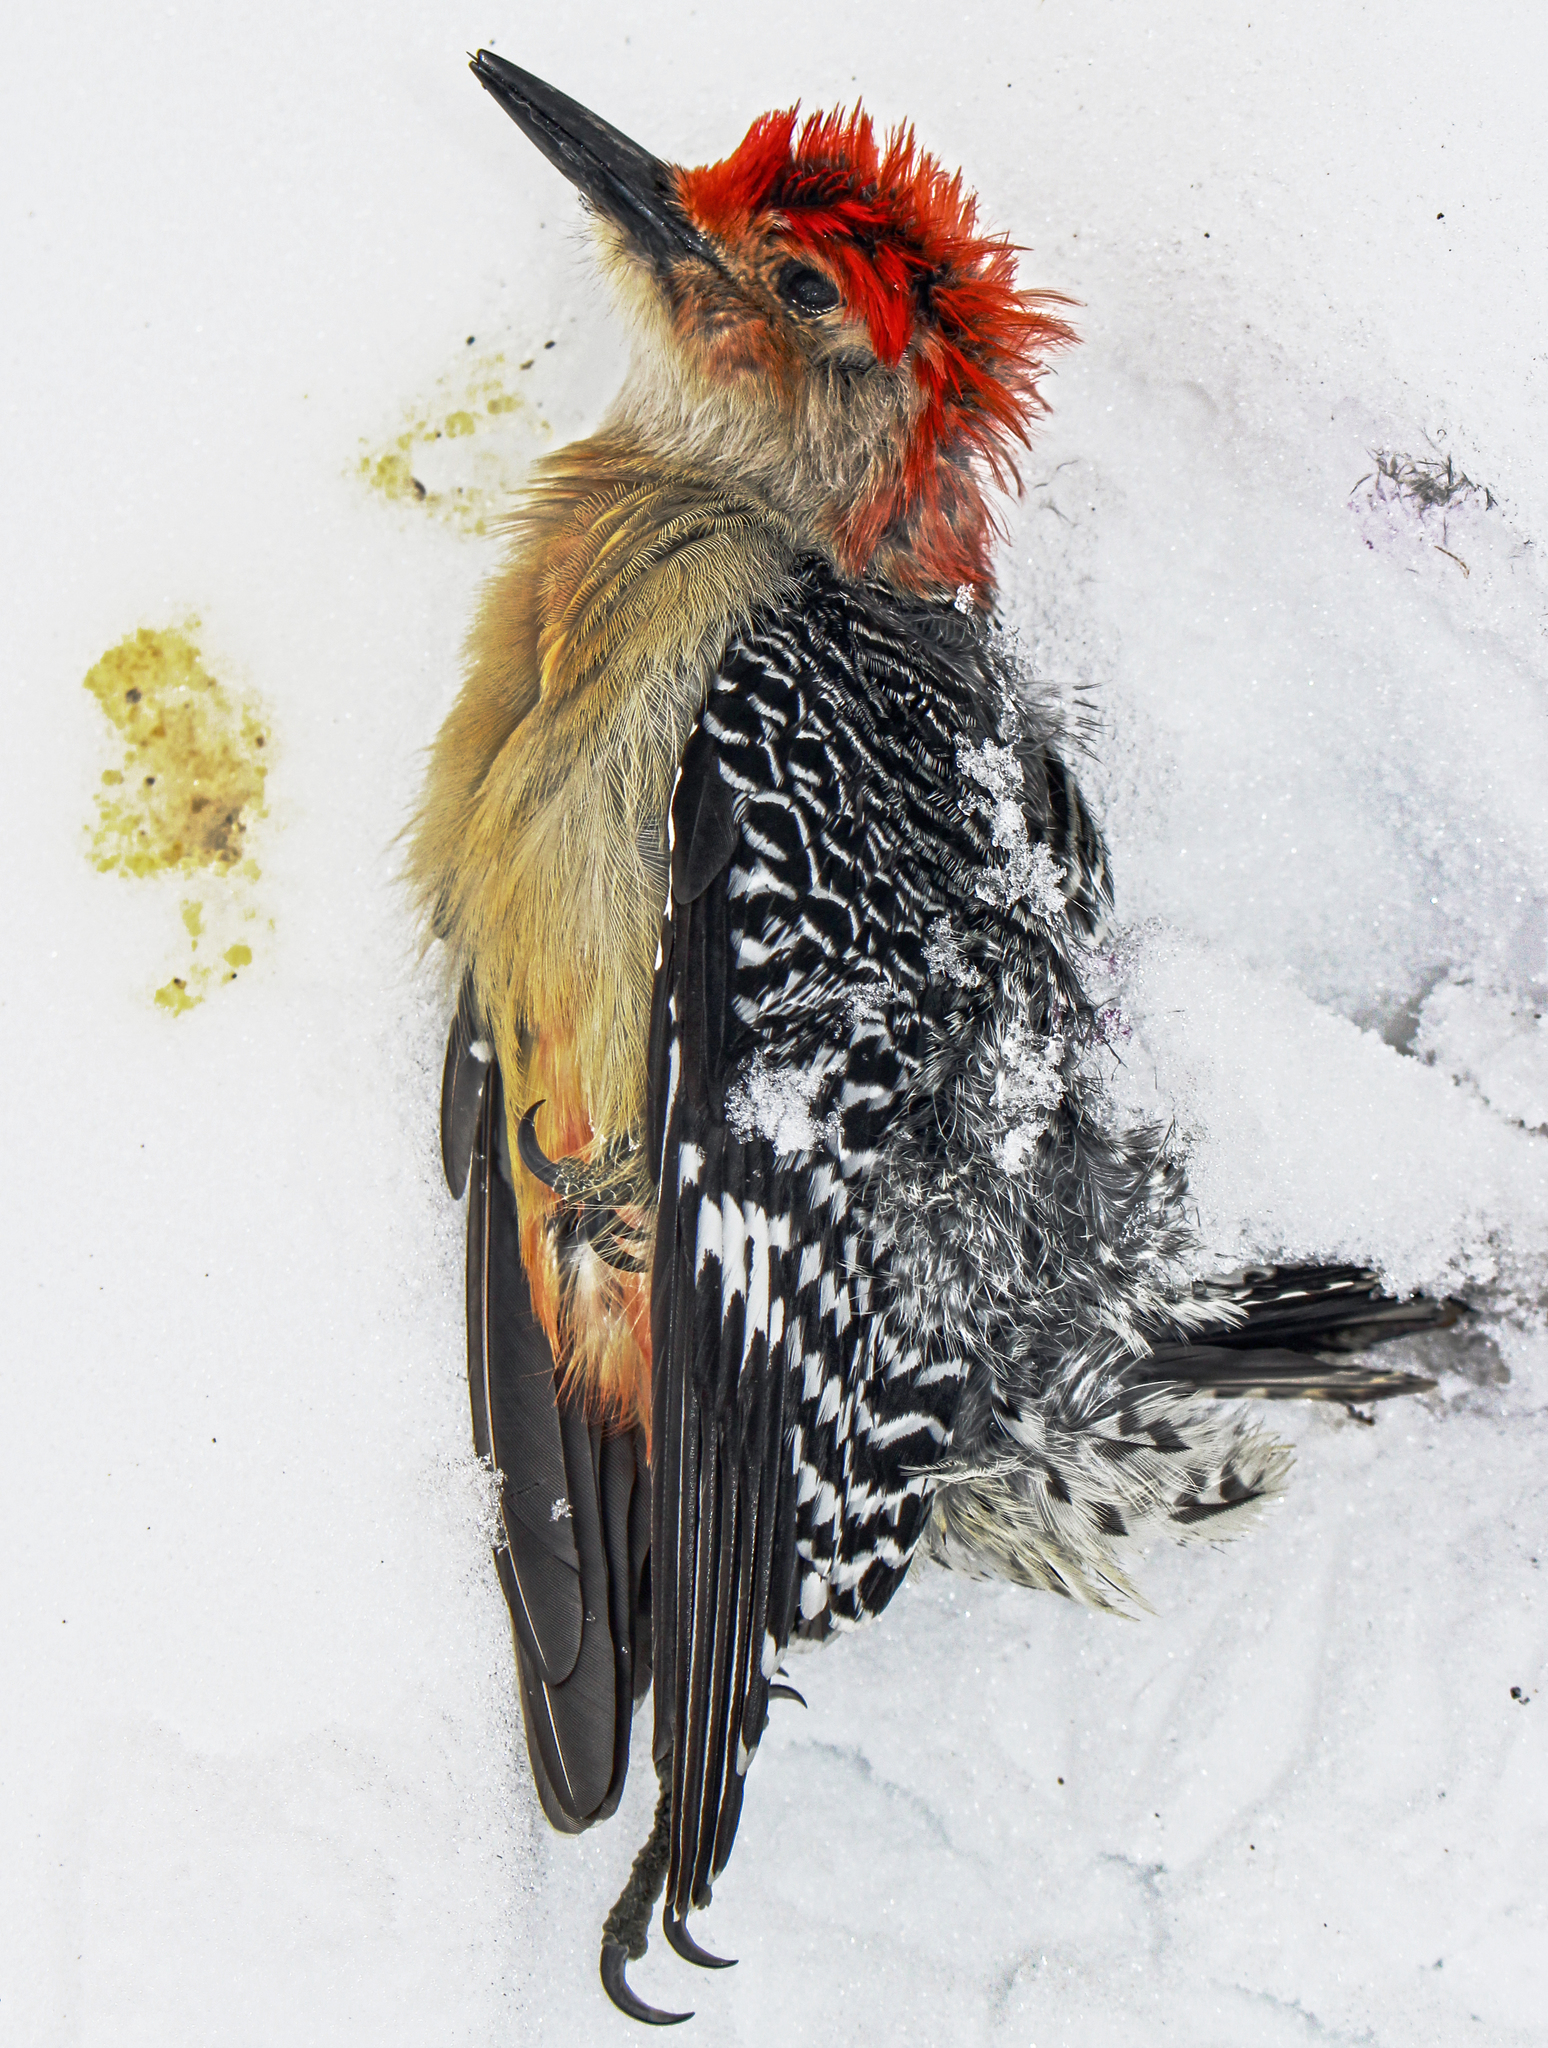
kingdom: Animalia
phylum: Chordata
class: Aves
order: Piciformes
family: Picidae
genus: Melanerpes
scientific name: Melanerpes carolinus
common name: Red-bellied woodpecker
